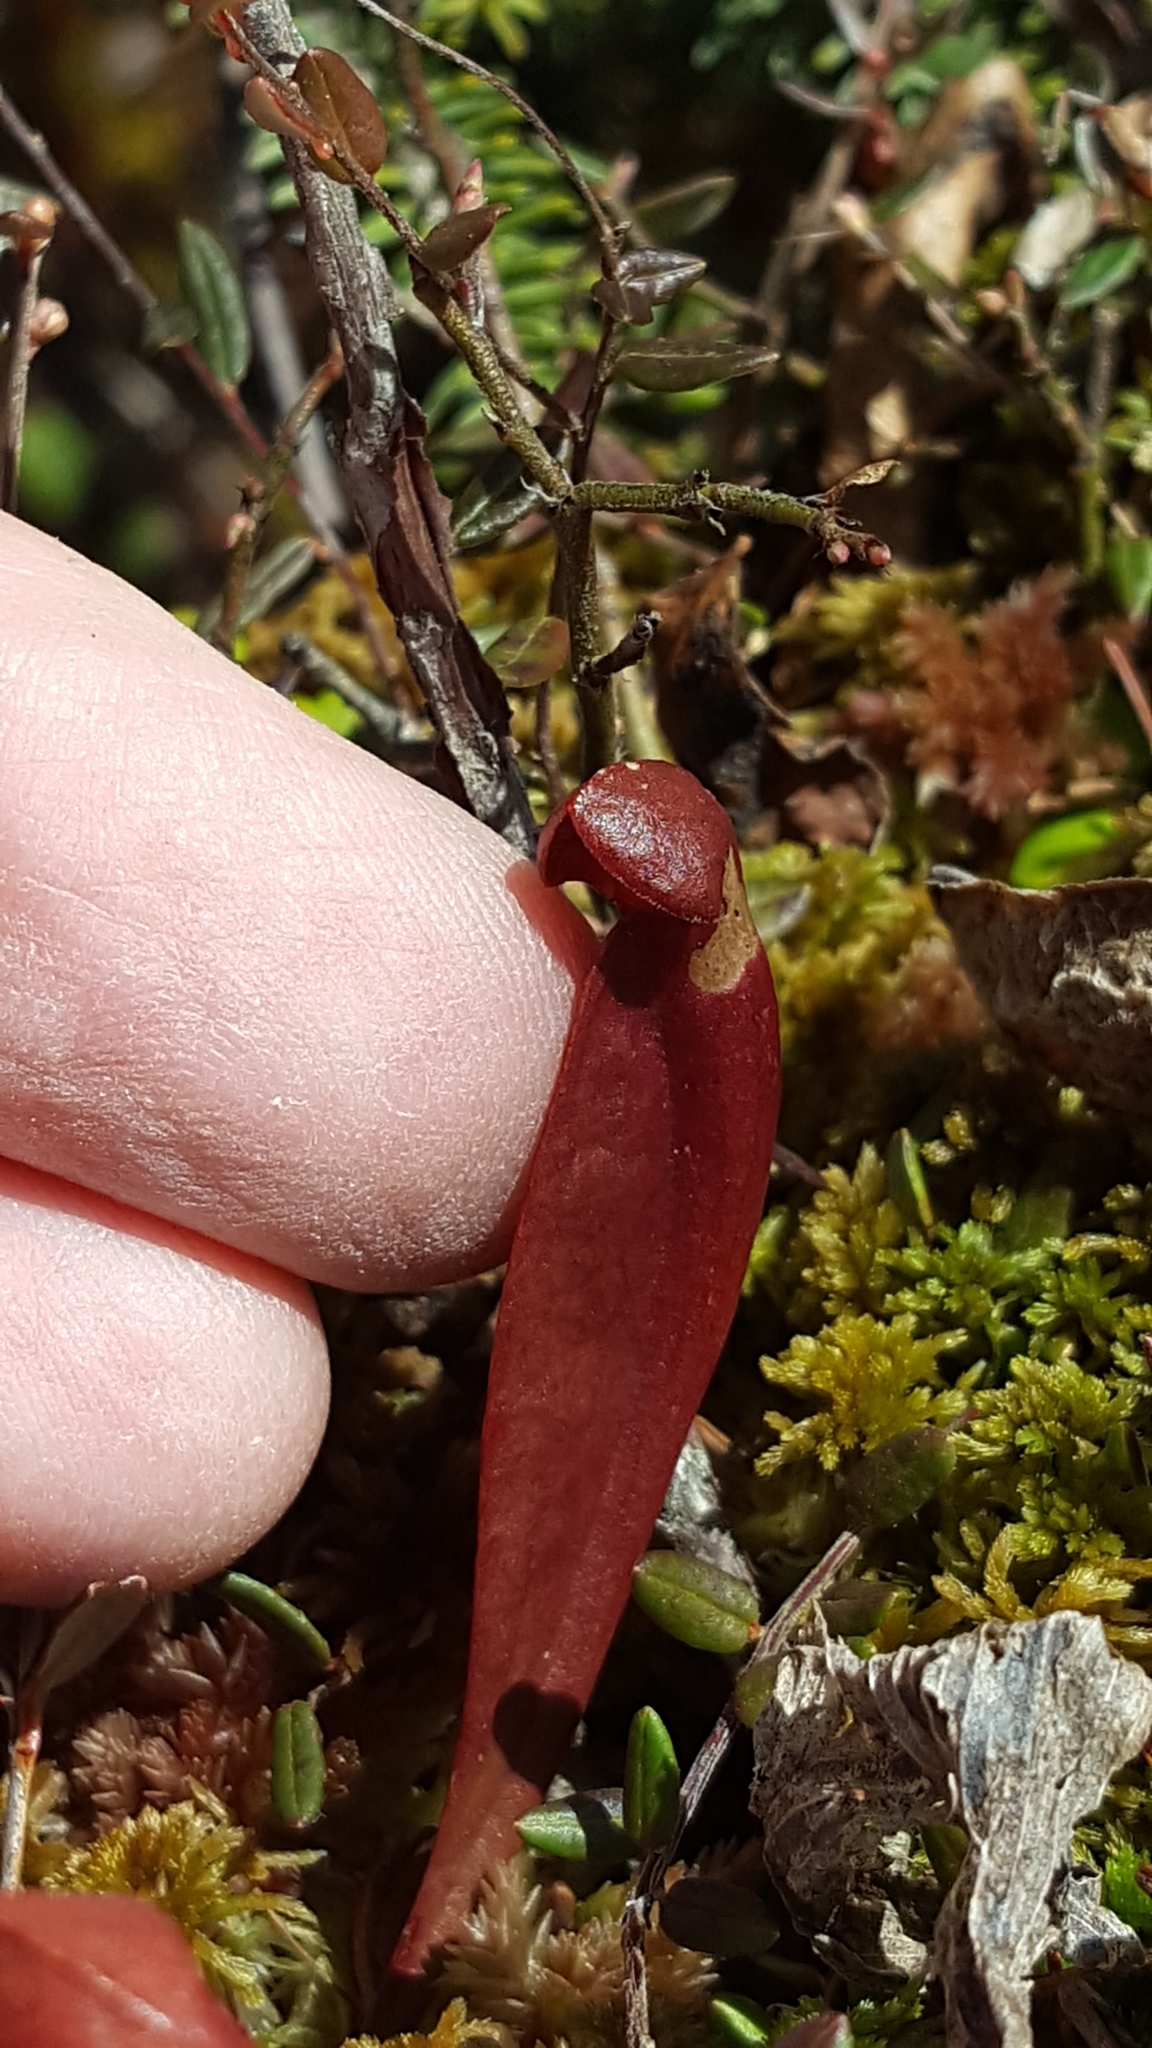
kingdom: Plantae
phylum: Tracheophyta
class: Magnoliopsida
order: Ericales
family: Sarraceniaceae
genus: Sarracenia
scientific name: Sarracenia purpurea
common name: Pitcherplant
